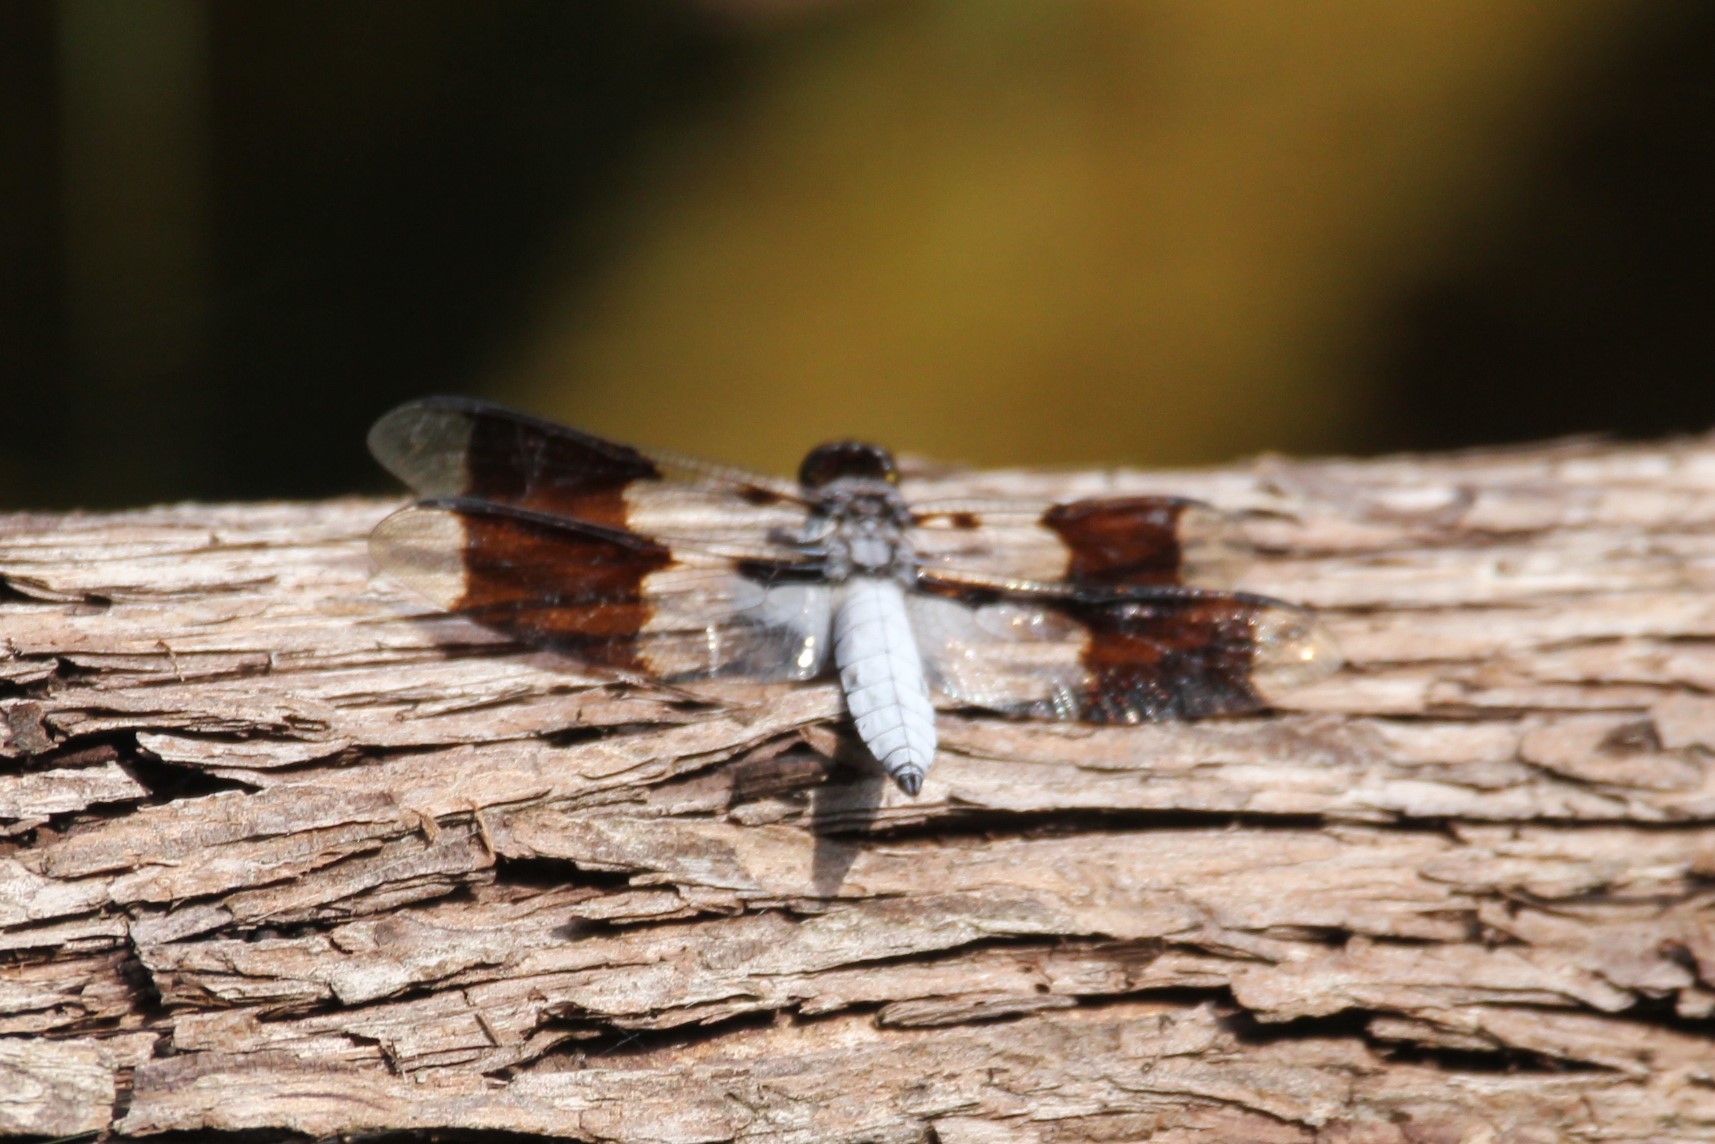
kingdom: Animalia
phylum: Arthropoda
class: Insecta
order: Odonata
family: Libellulidae
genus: Plathemis
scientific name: Plathemis lydia
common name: Common whitetail
